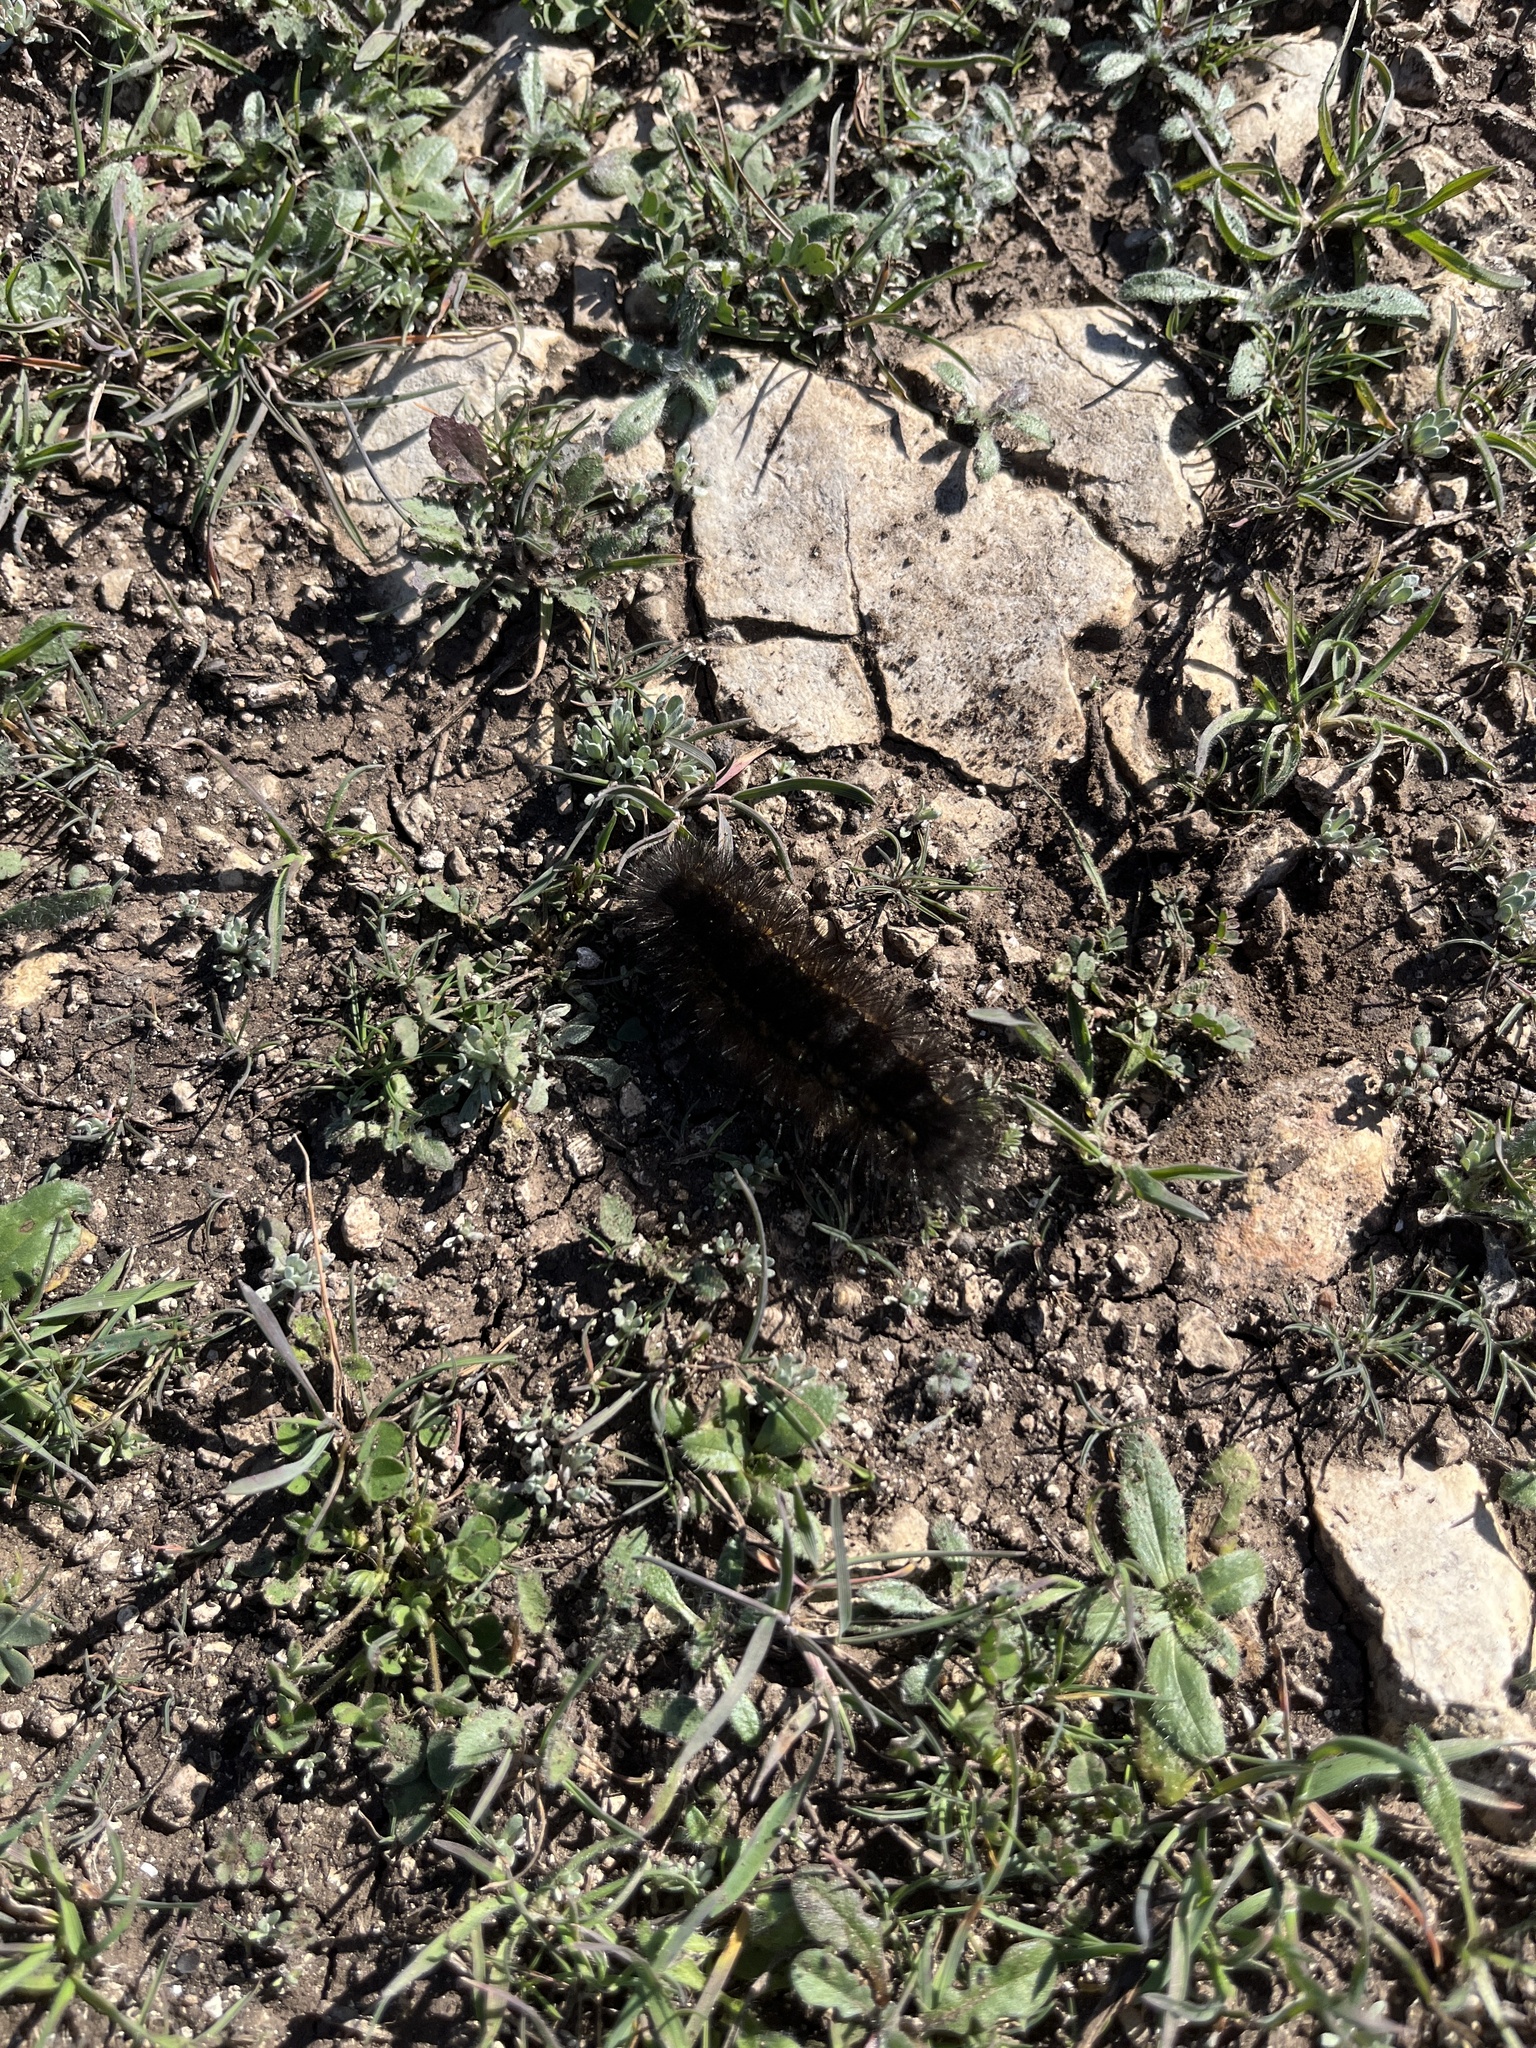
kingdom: Animalia
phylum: Arthropoda
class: Insecta
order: Lepidoptera
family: Erebidae
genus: Estigmene
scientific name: Estigmene acrea
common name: Salt marsh moth
